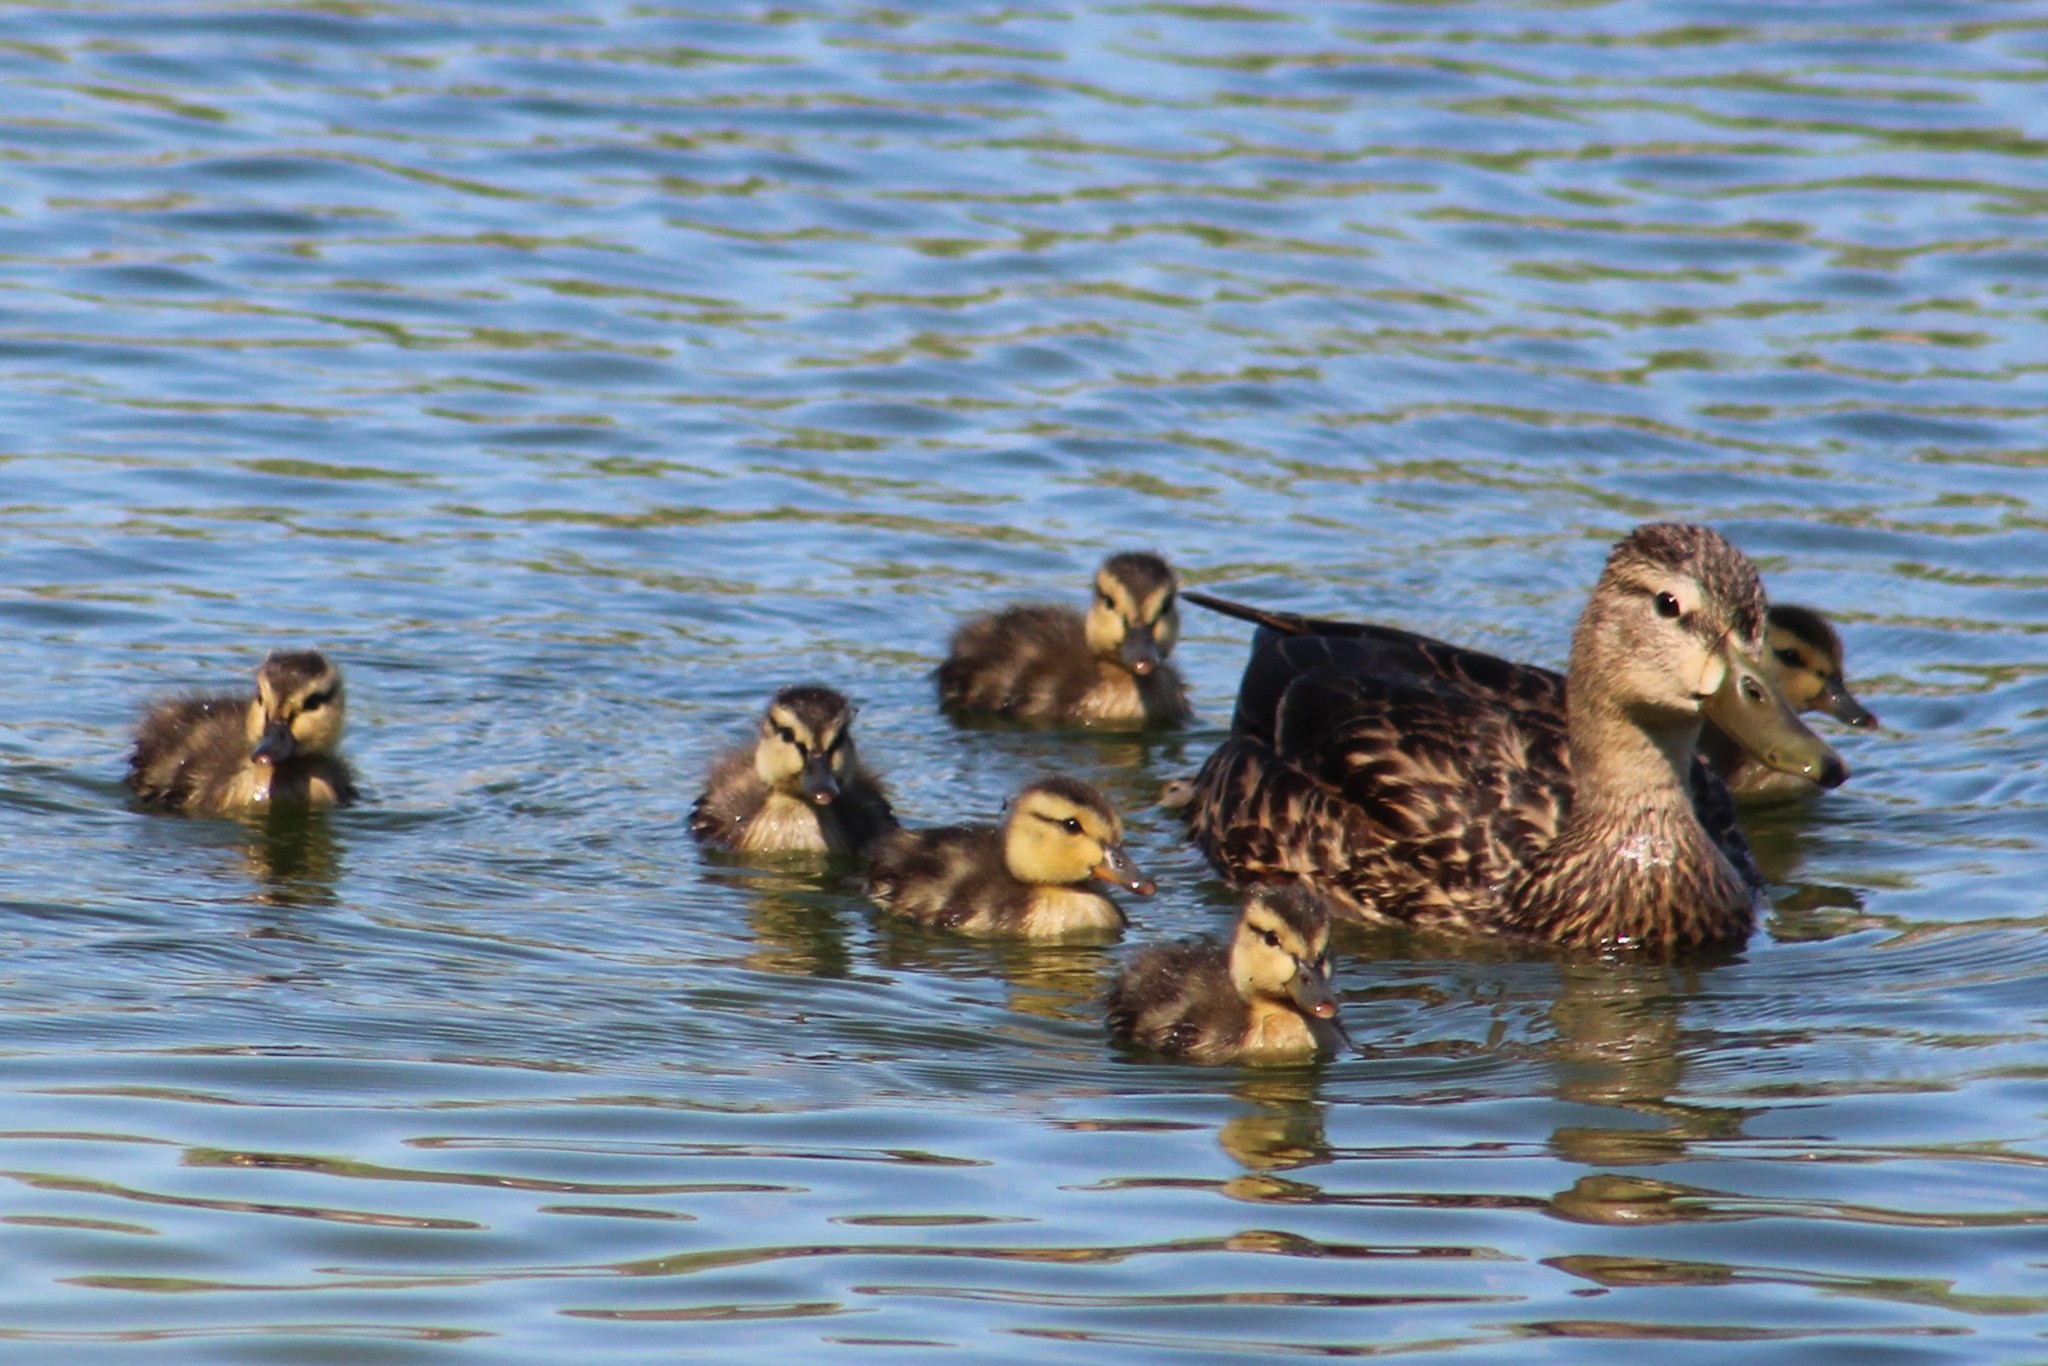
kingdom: Animalia
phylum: Chordata
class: Aves
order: Anseriformes
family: Anatidae
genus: Anas
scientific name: Anas diazi
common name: Mexican duck
